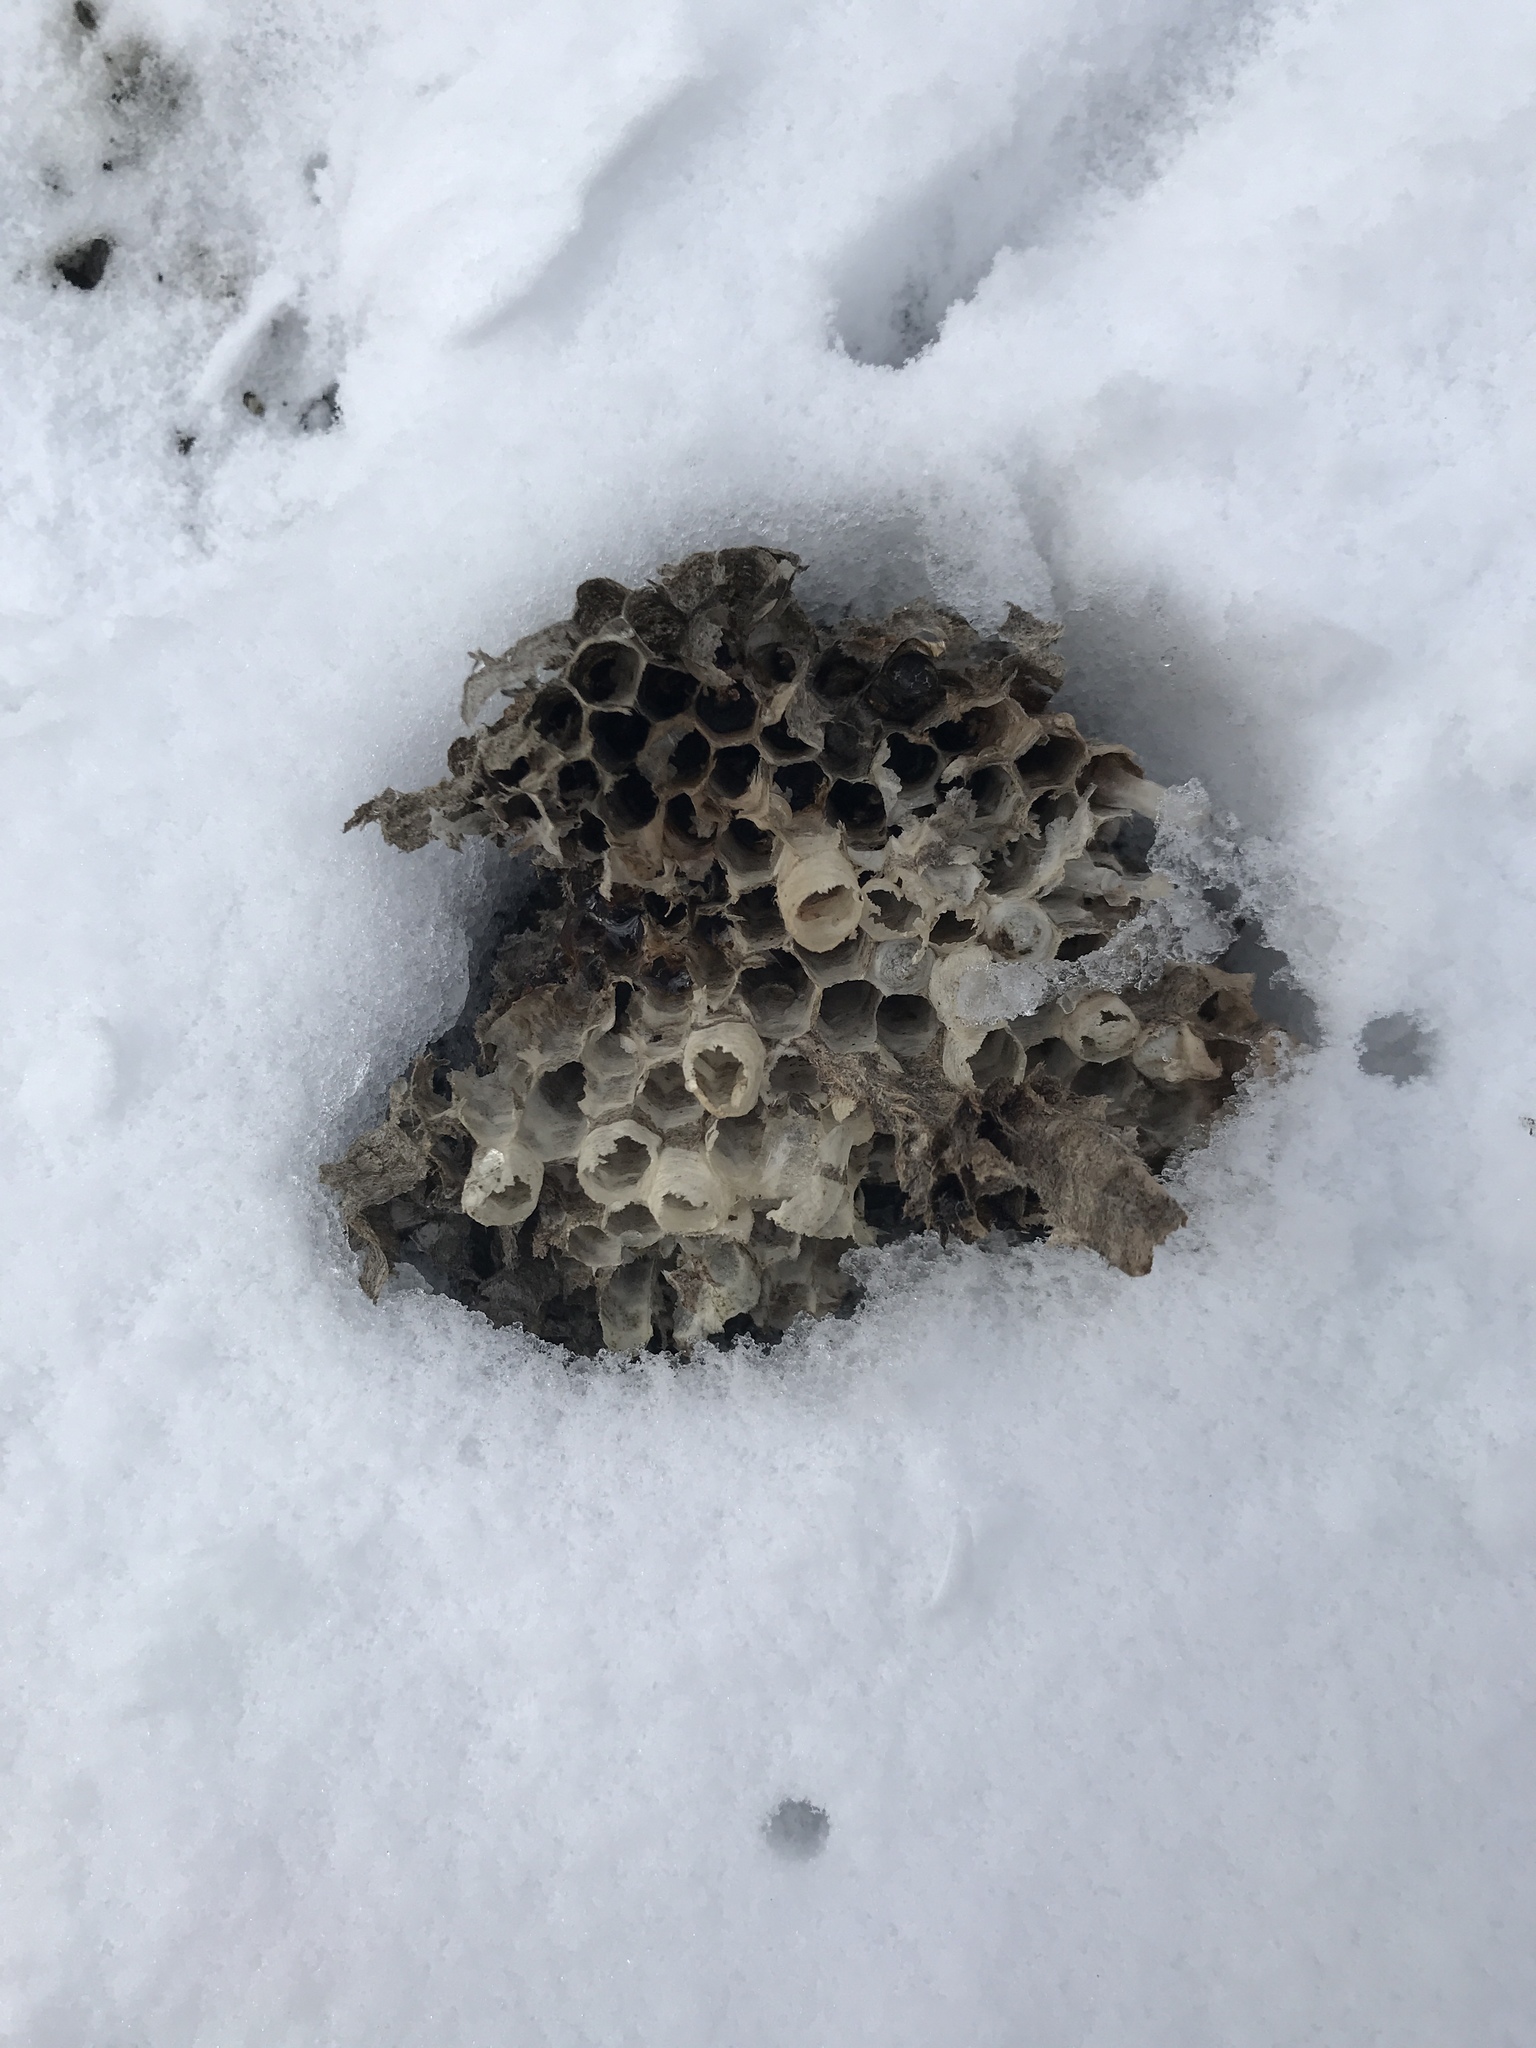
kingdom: Animalia
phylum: Arthropoda
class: Insecta
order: Hymenoptera
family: Eumenidae
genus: Polistes
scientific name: Polistes
